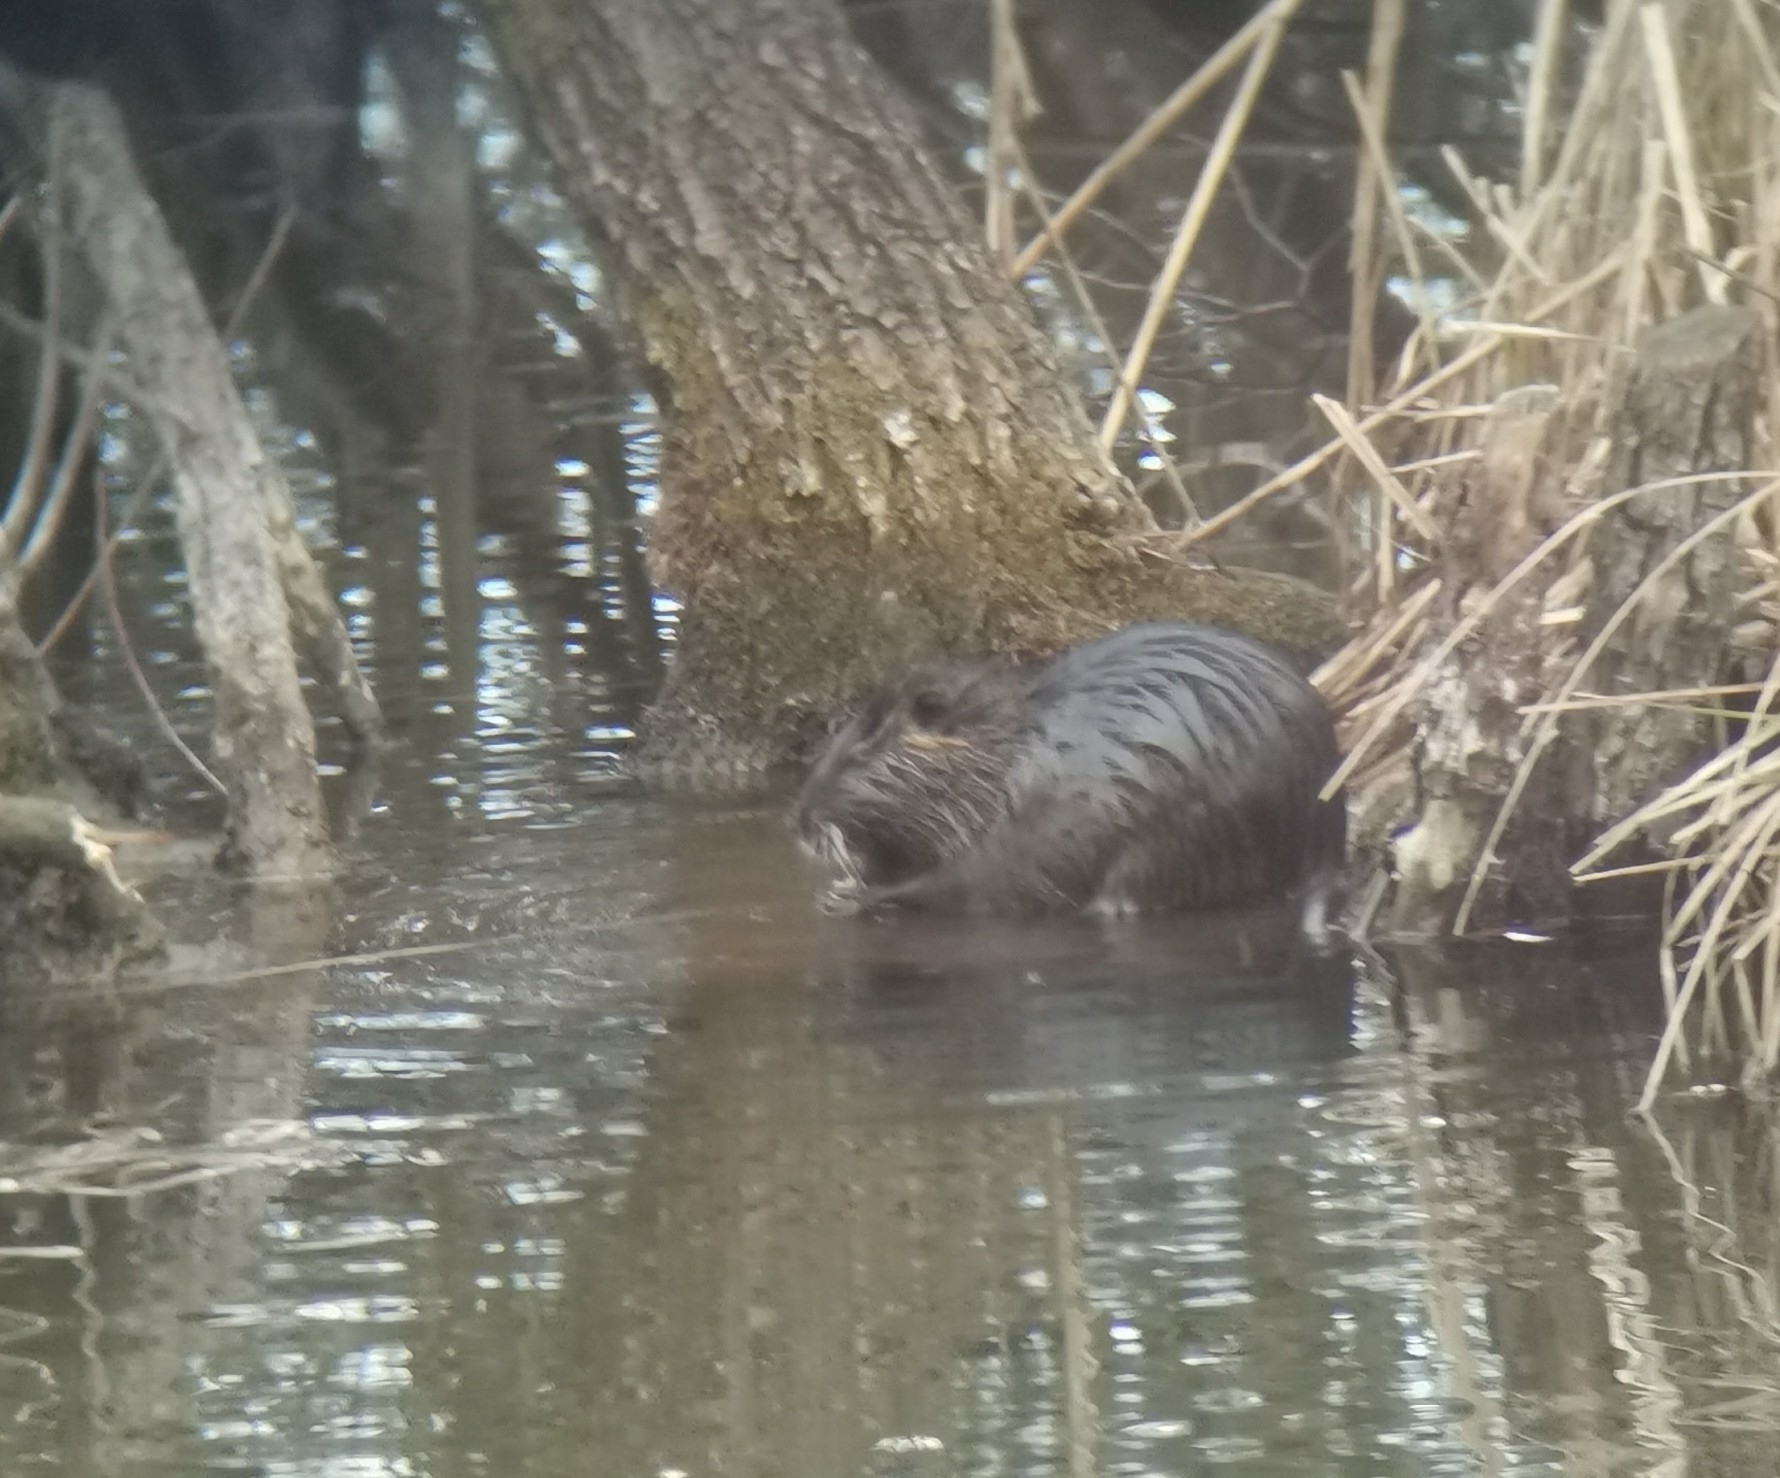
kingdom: Animalia
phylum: Chordata
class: Mammalia
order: Rodentia
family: Myocastoridae
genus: Myocastor
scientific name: Myocastor coypus
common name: Coypu
